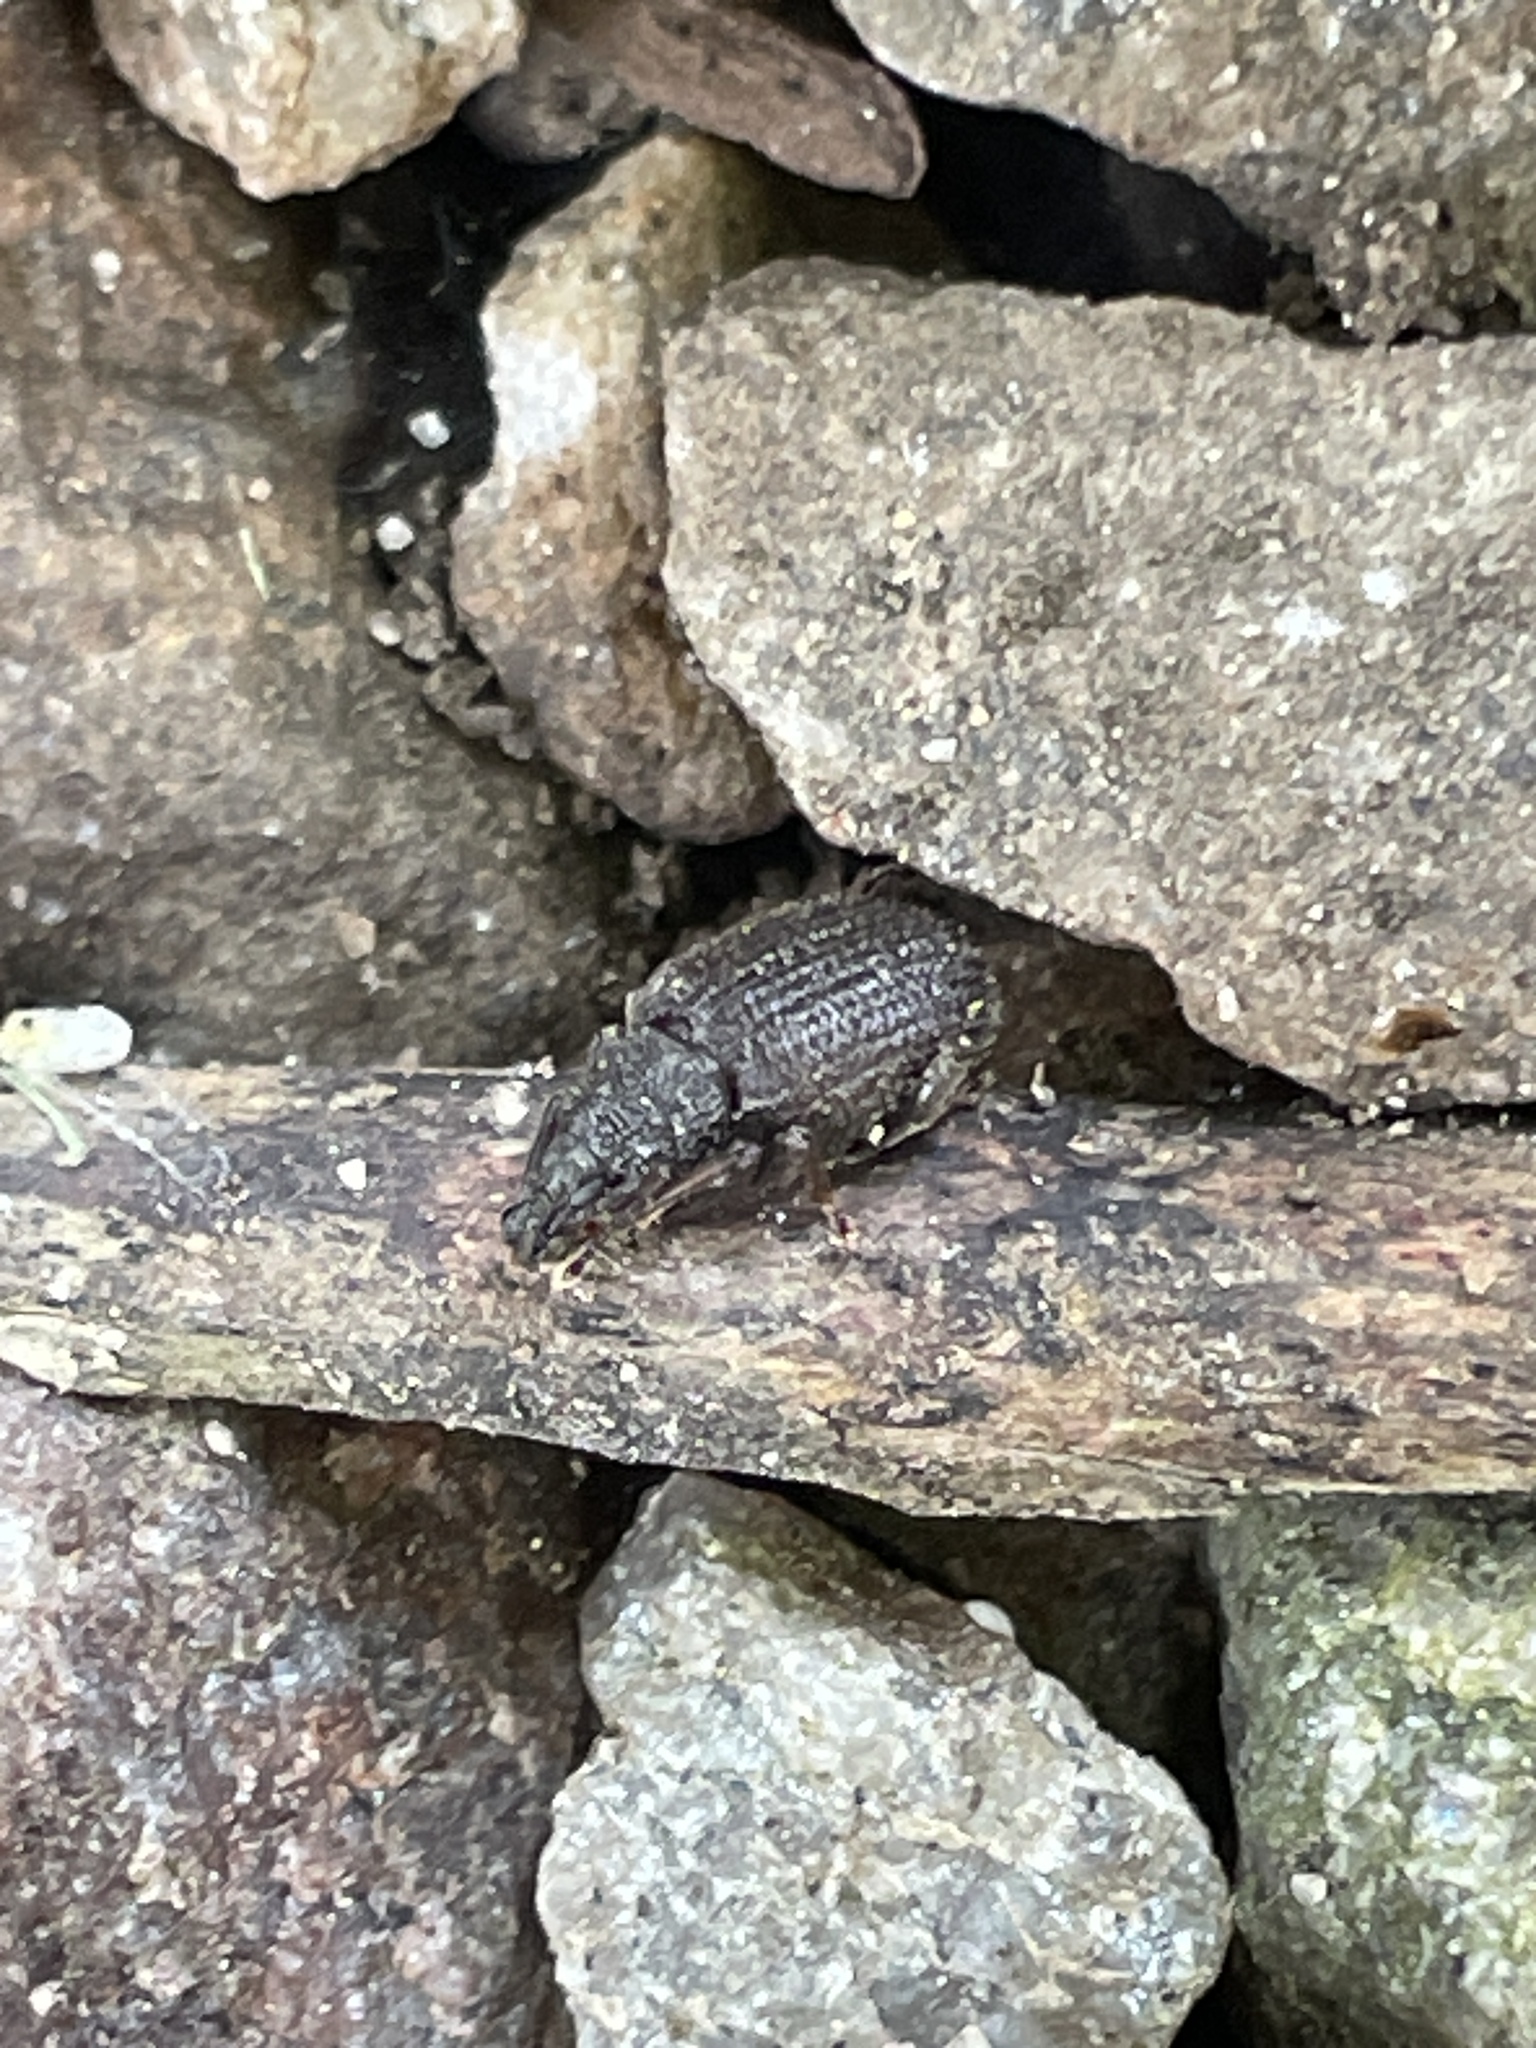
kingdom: Animalia
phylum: Arthropoda
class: Insecta
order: Coleoptera
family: Curculionidae
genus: Otiorhynchus
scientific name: Otiorhynchus rugosostriatus
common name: Weevil
